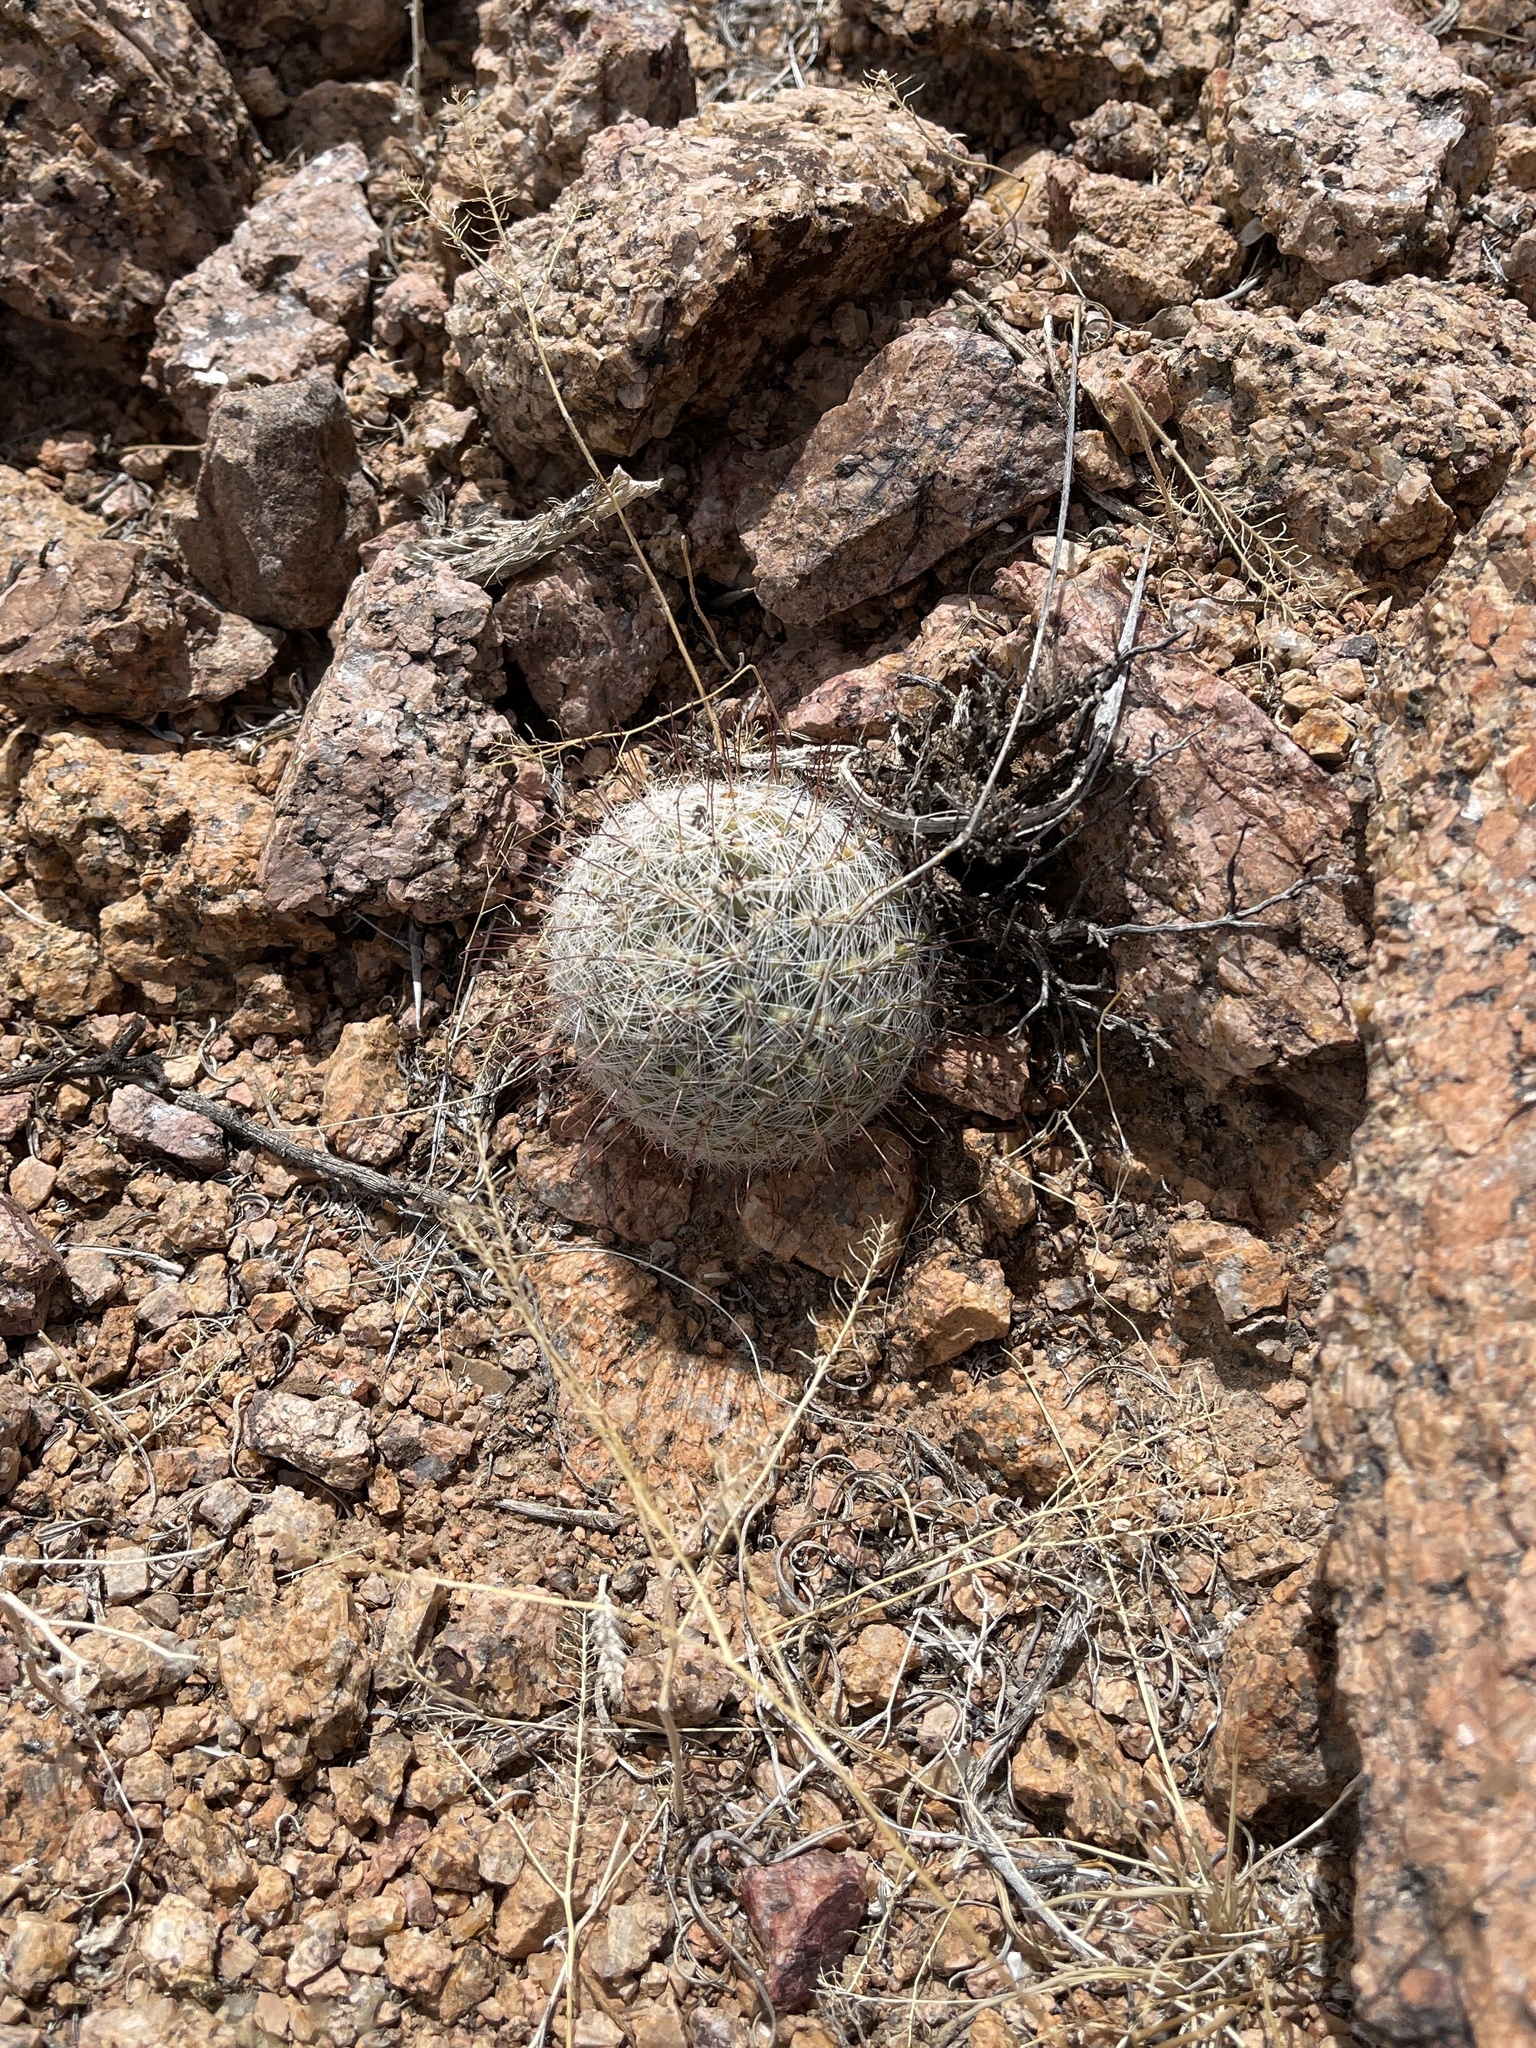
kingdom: Plantae
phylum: Tracheophyta
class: Magnoliopsida
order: Caryophyllales
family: Cactaceae
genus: Cochemiea
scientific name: Cochemiea grahamii
